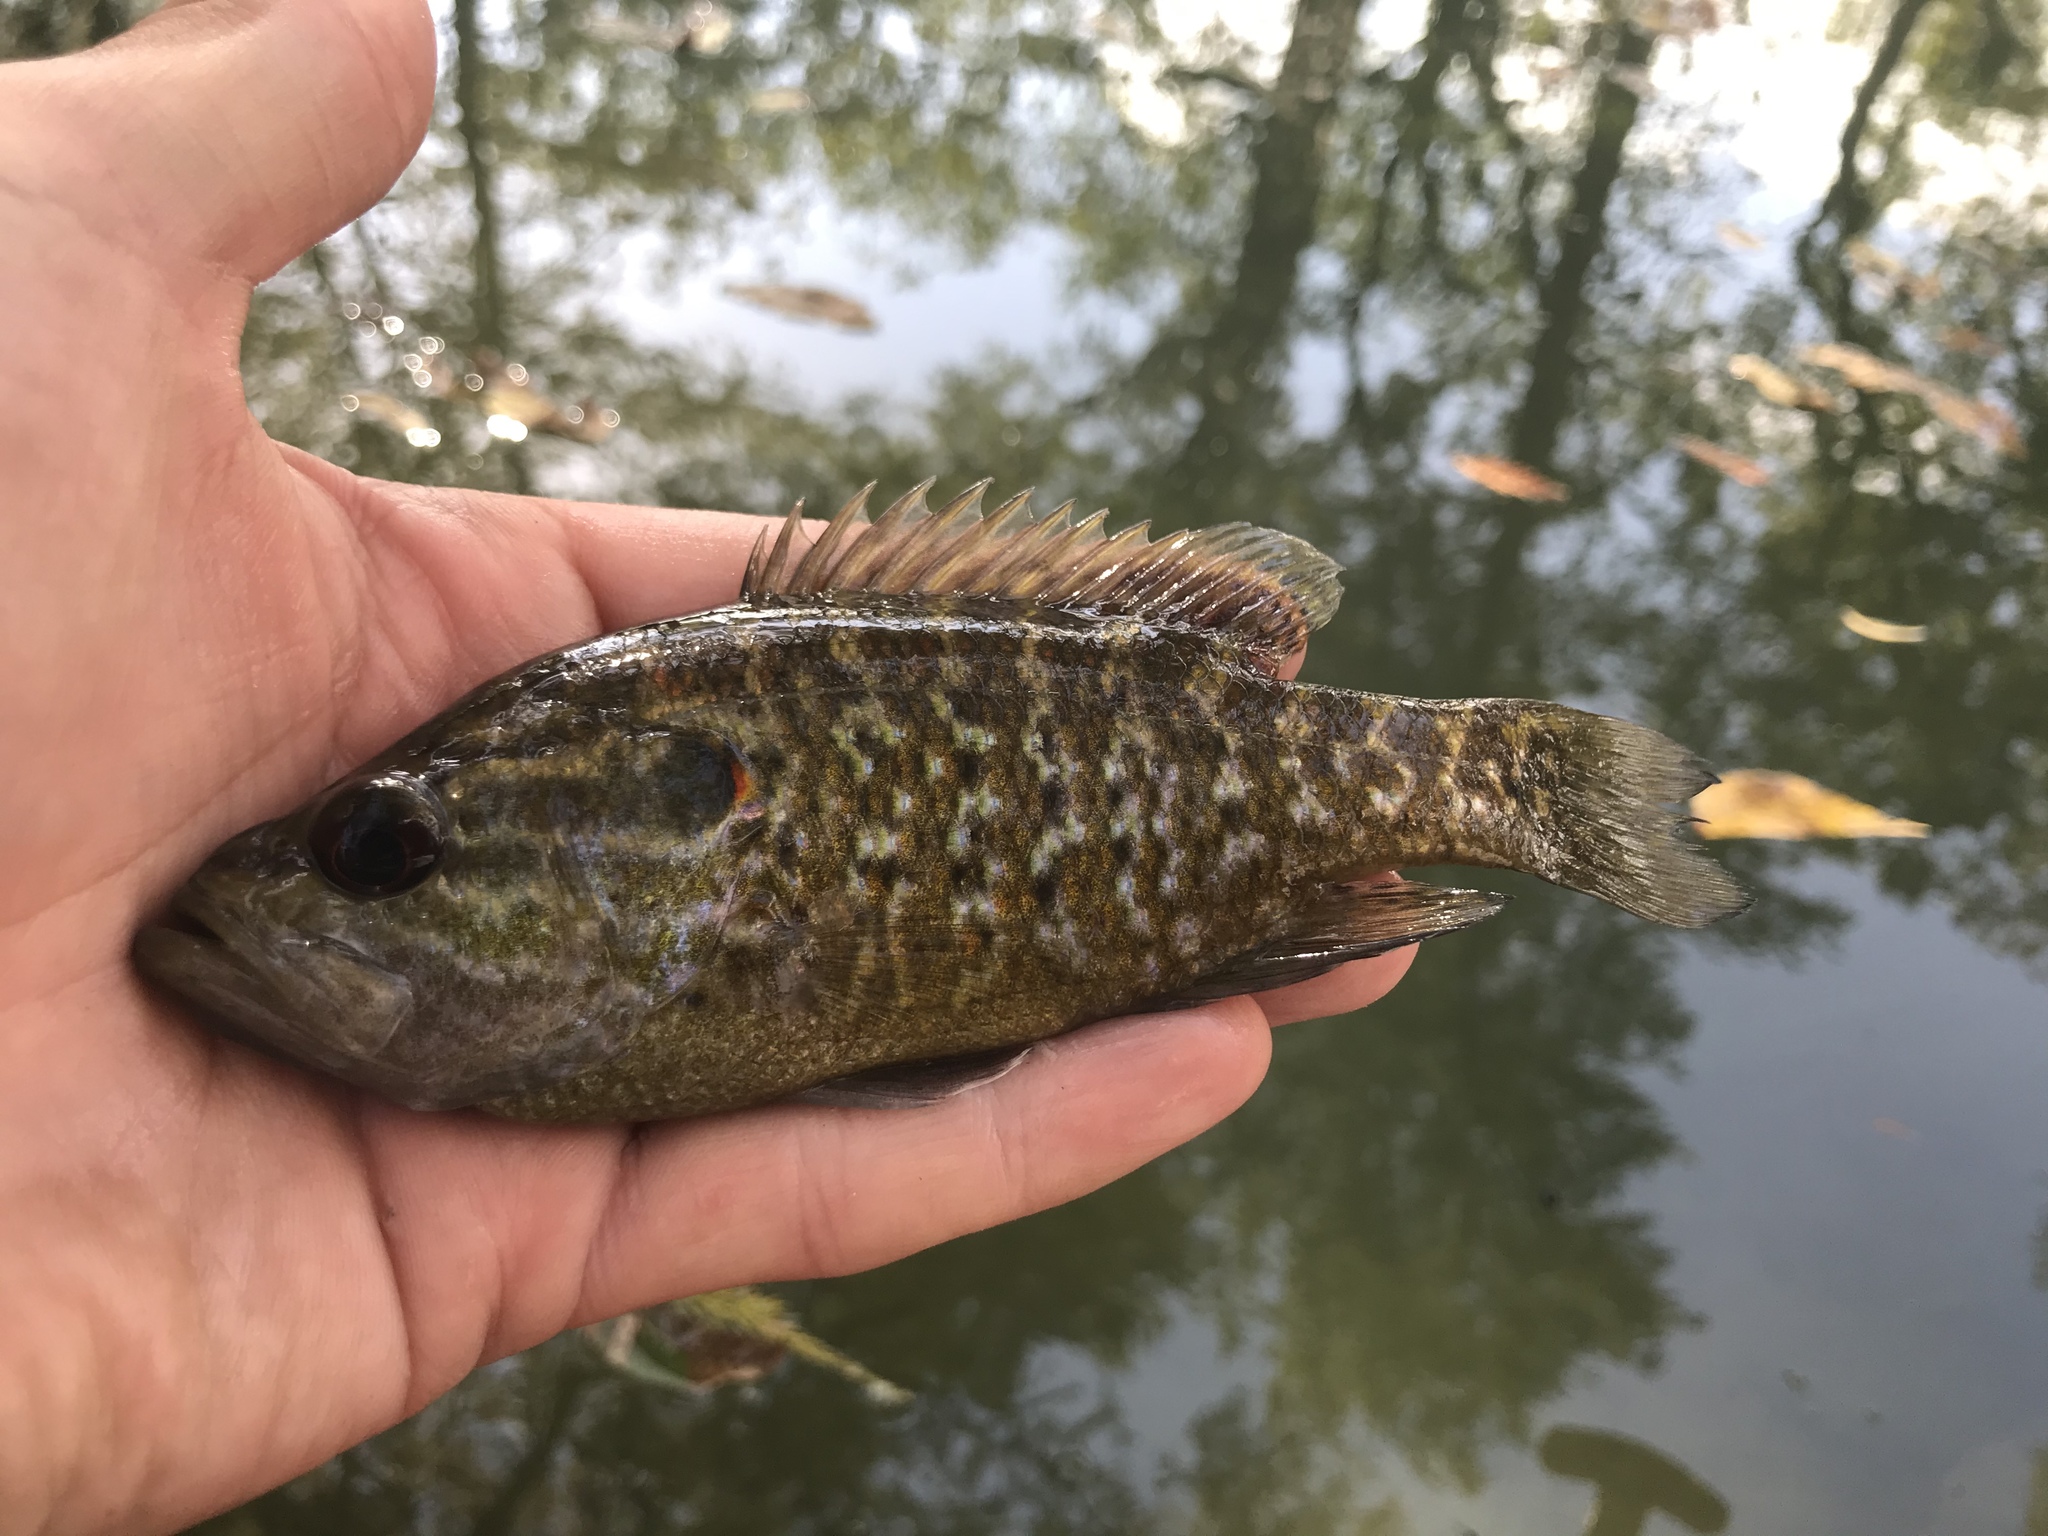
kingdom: Animalia
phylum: Chordata
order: Perciformes
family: Centrarchidae
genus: Lepomis
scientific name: Lepomis gulosus
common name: Warmouth
